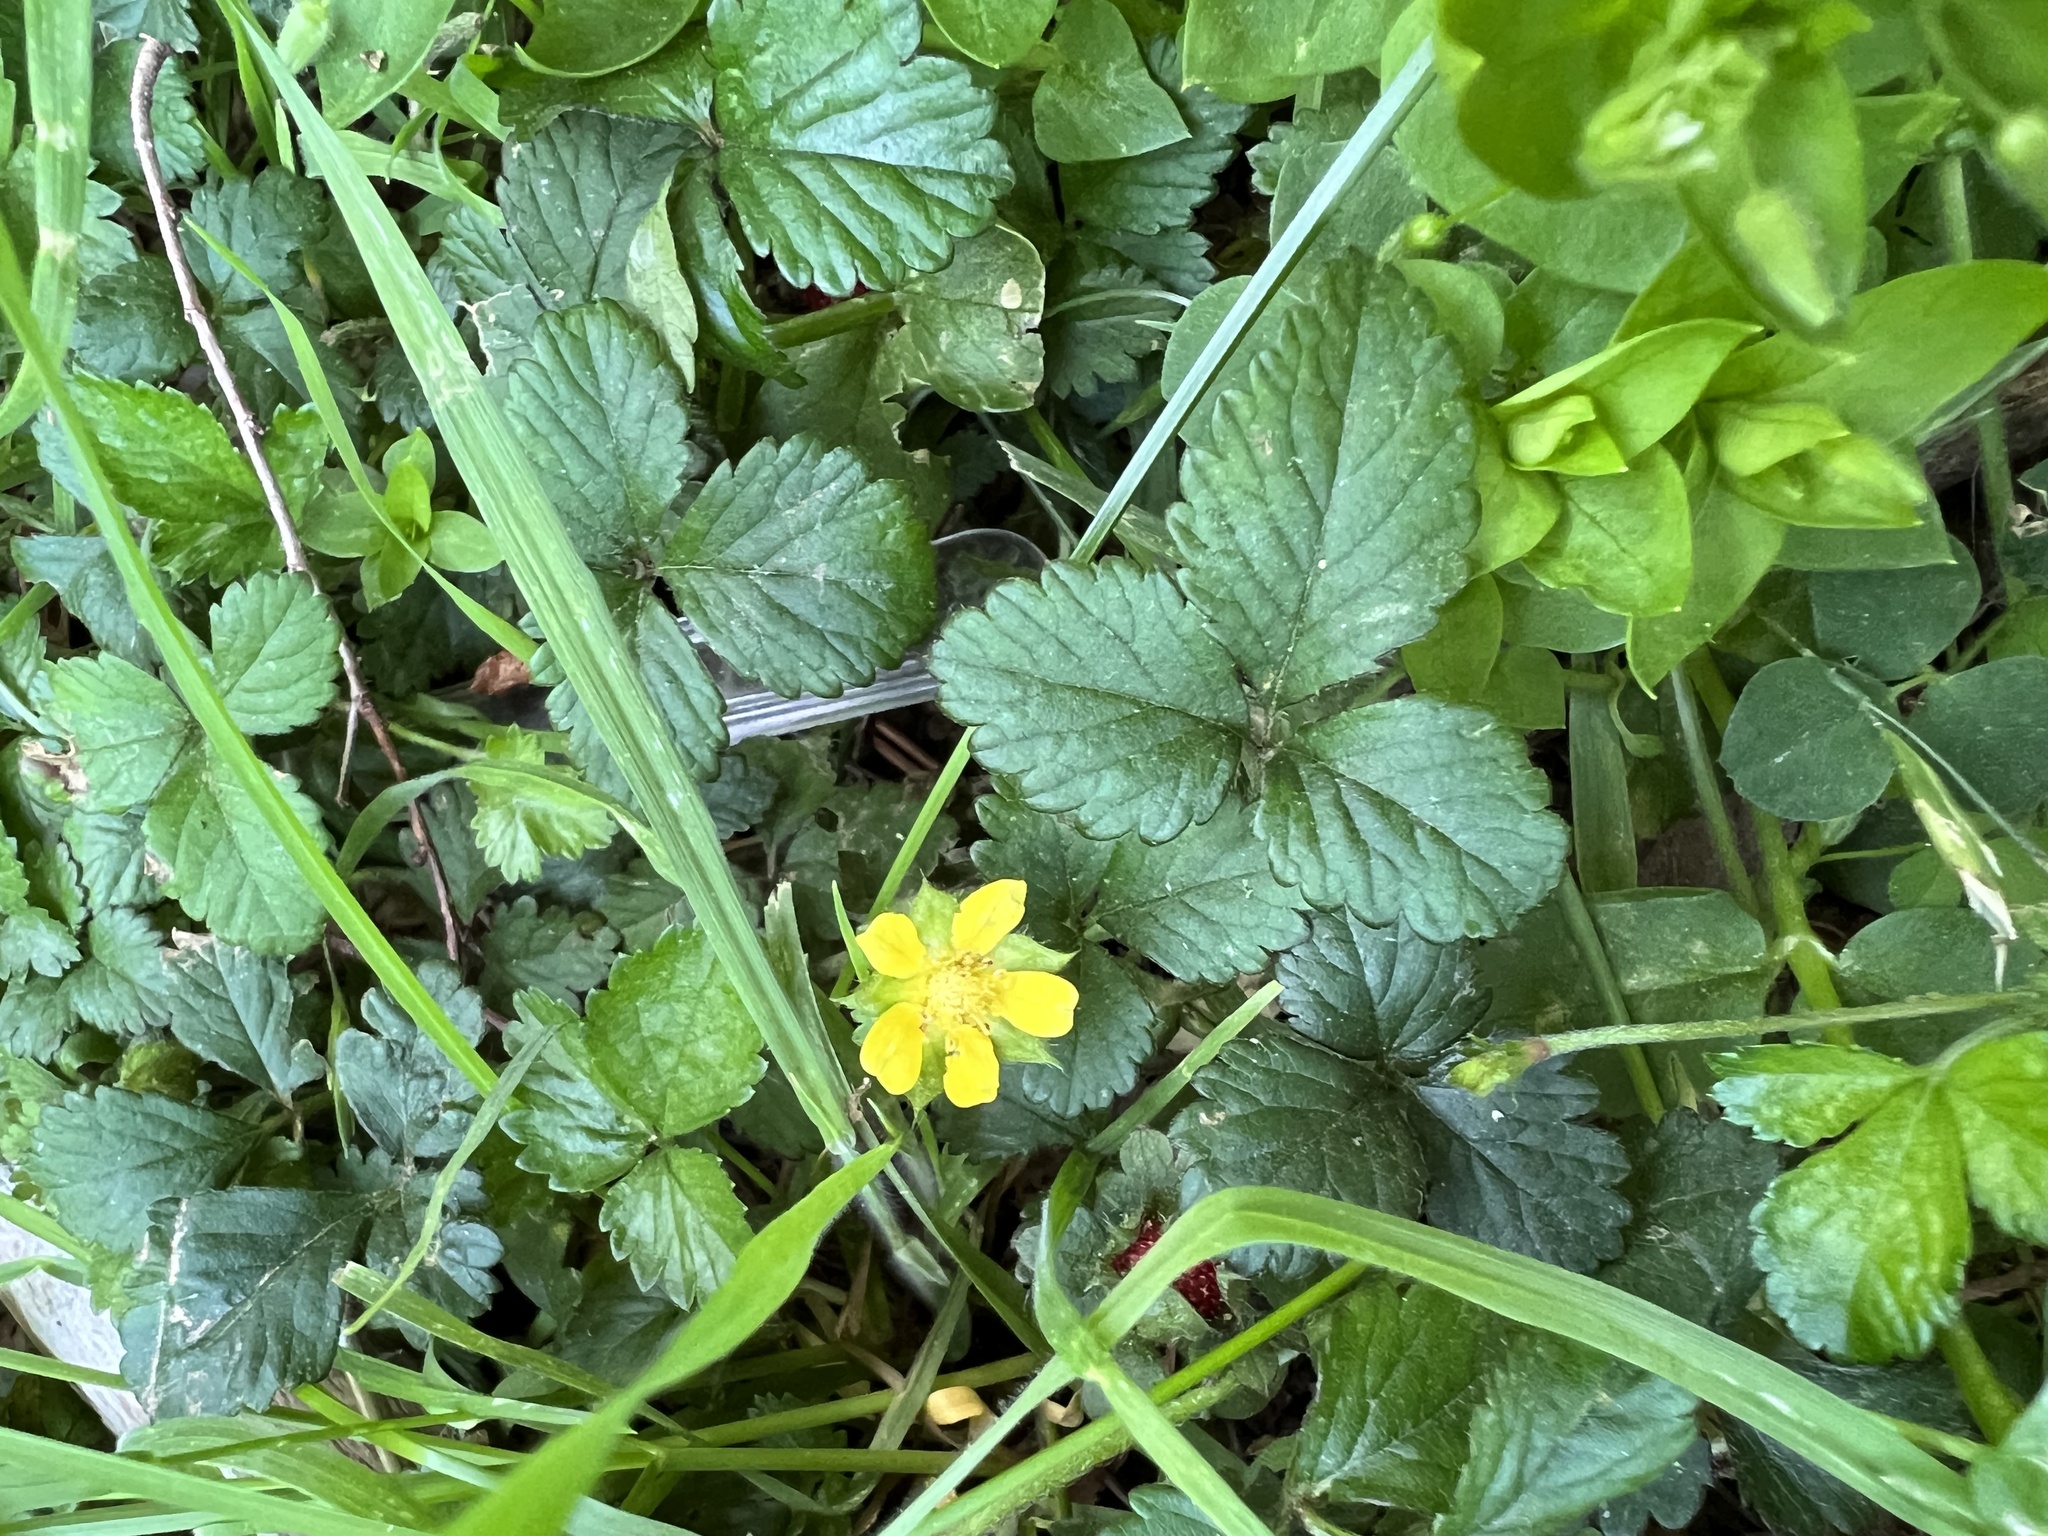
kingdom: Plantae
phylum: Tracheophyta
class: Magnoliopsida
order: Rosales
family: Rosaceae
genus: Potentilla
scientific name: Potentilla indica
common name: Yellow-flowered strawberry
